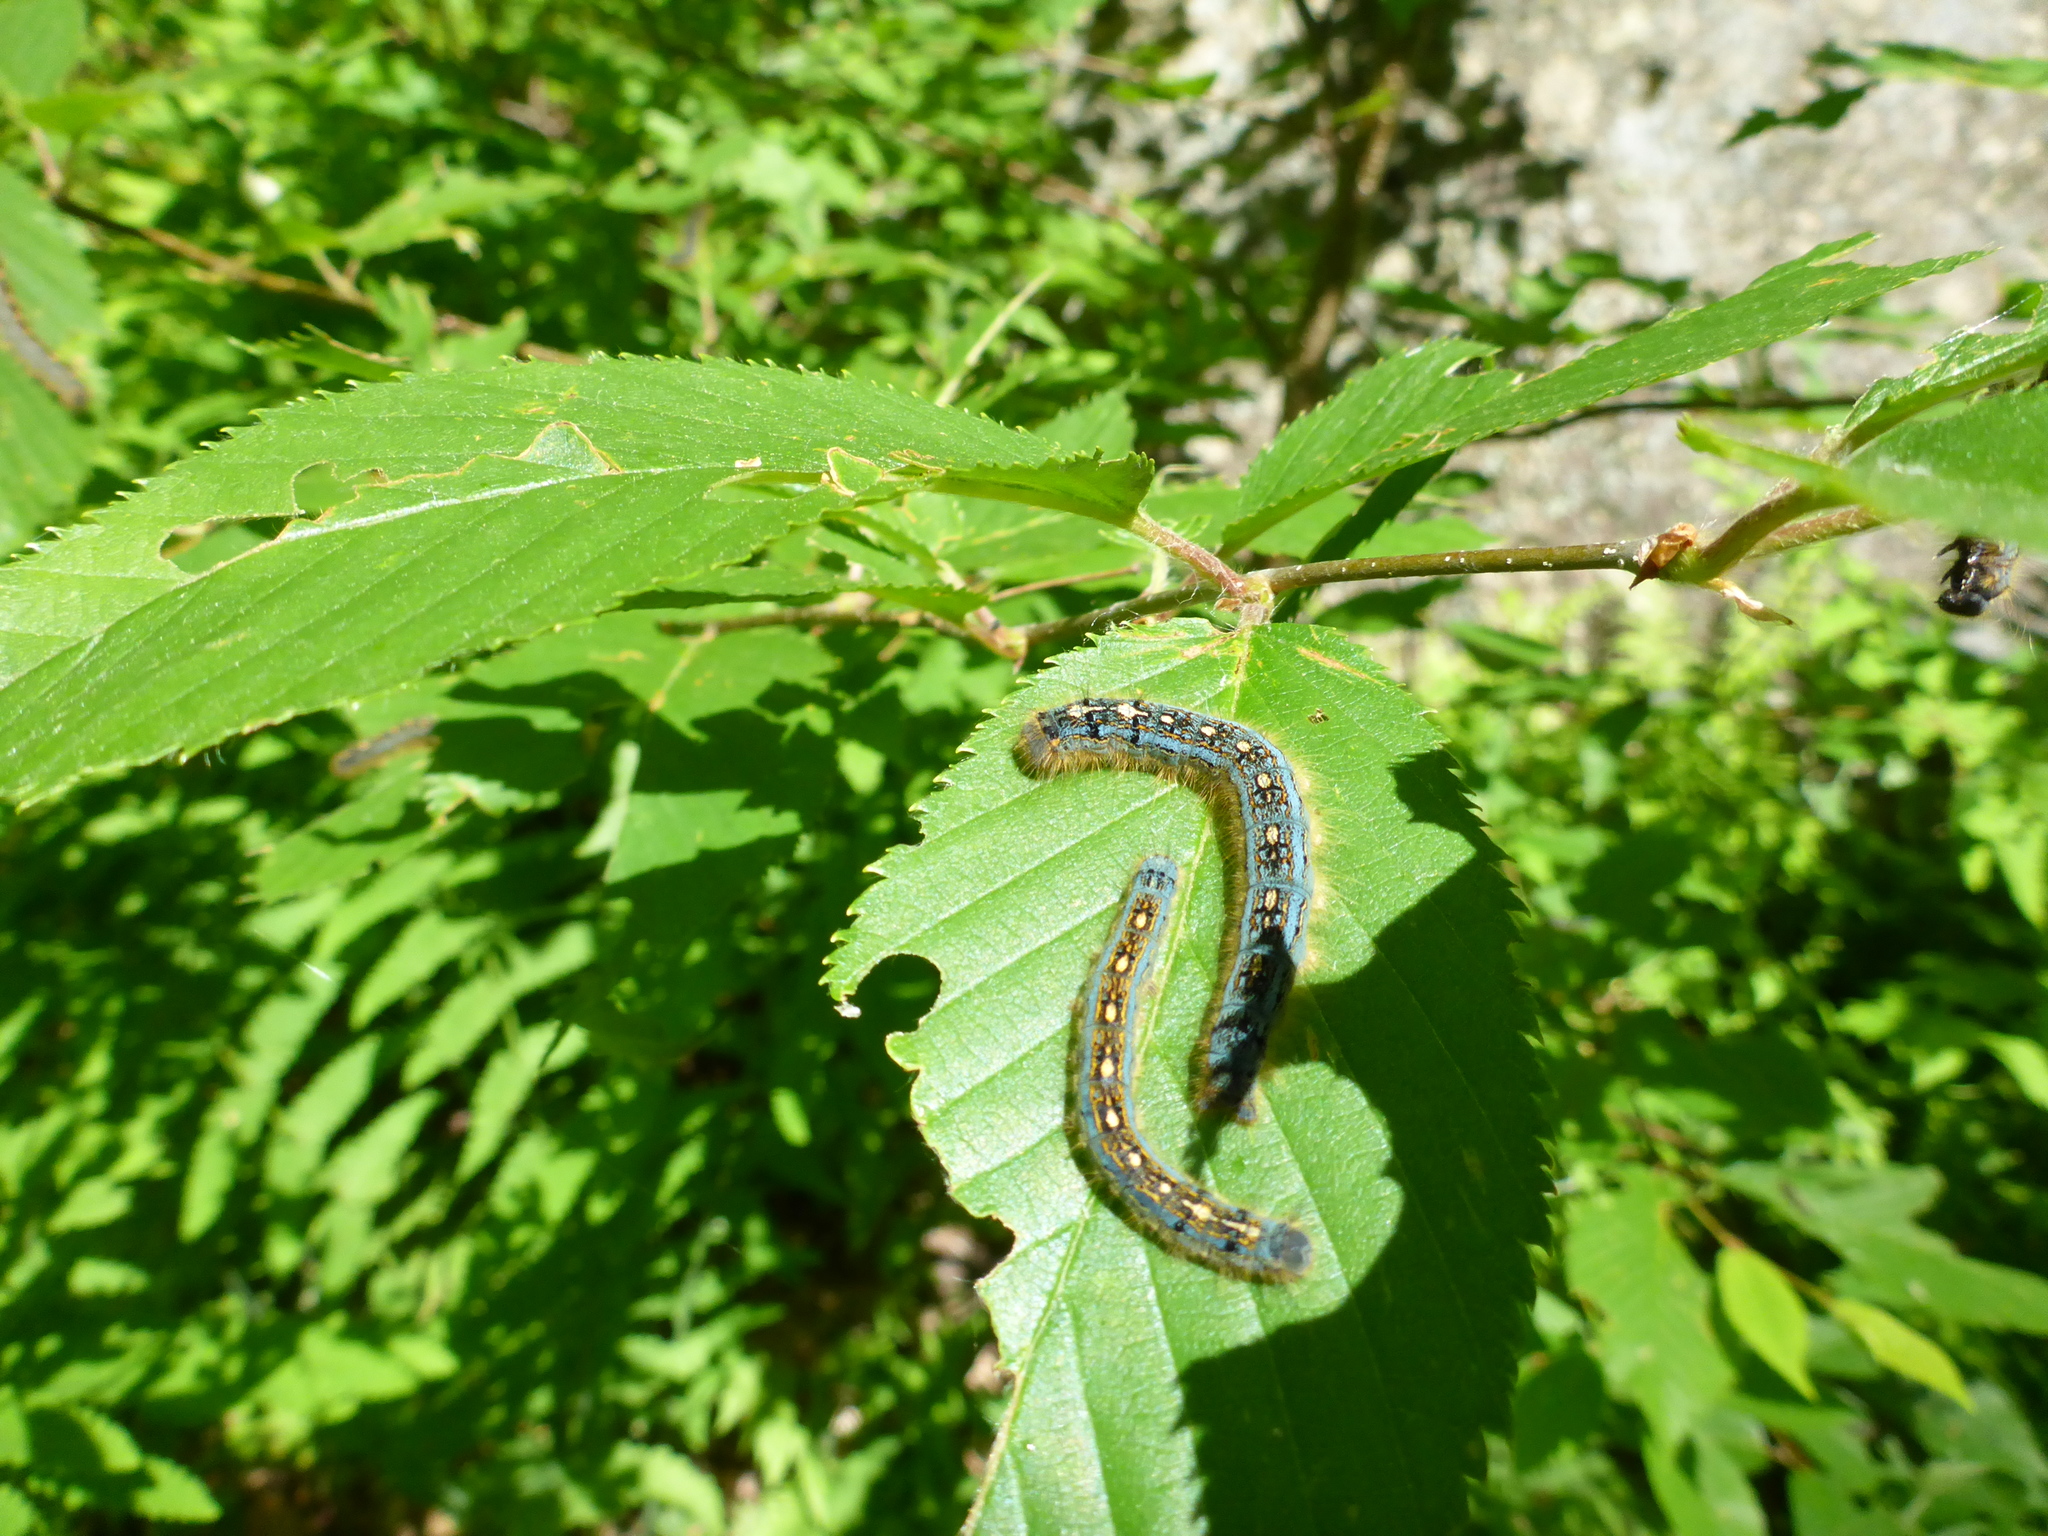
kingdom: Animalia
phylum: Arthropoda
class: Insecta
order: Lepidoptera
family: Lasiocampidae
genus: Malacosoma
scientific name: Malacosoma disstria
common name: Forest tent caterpillar
